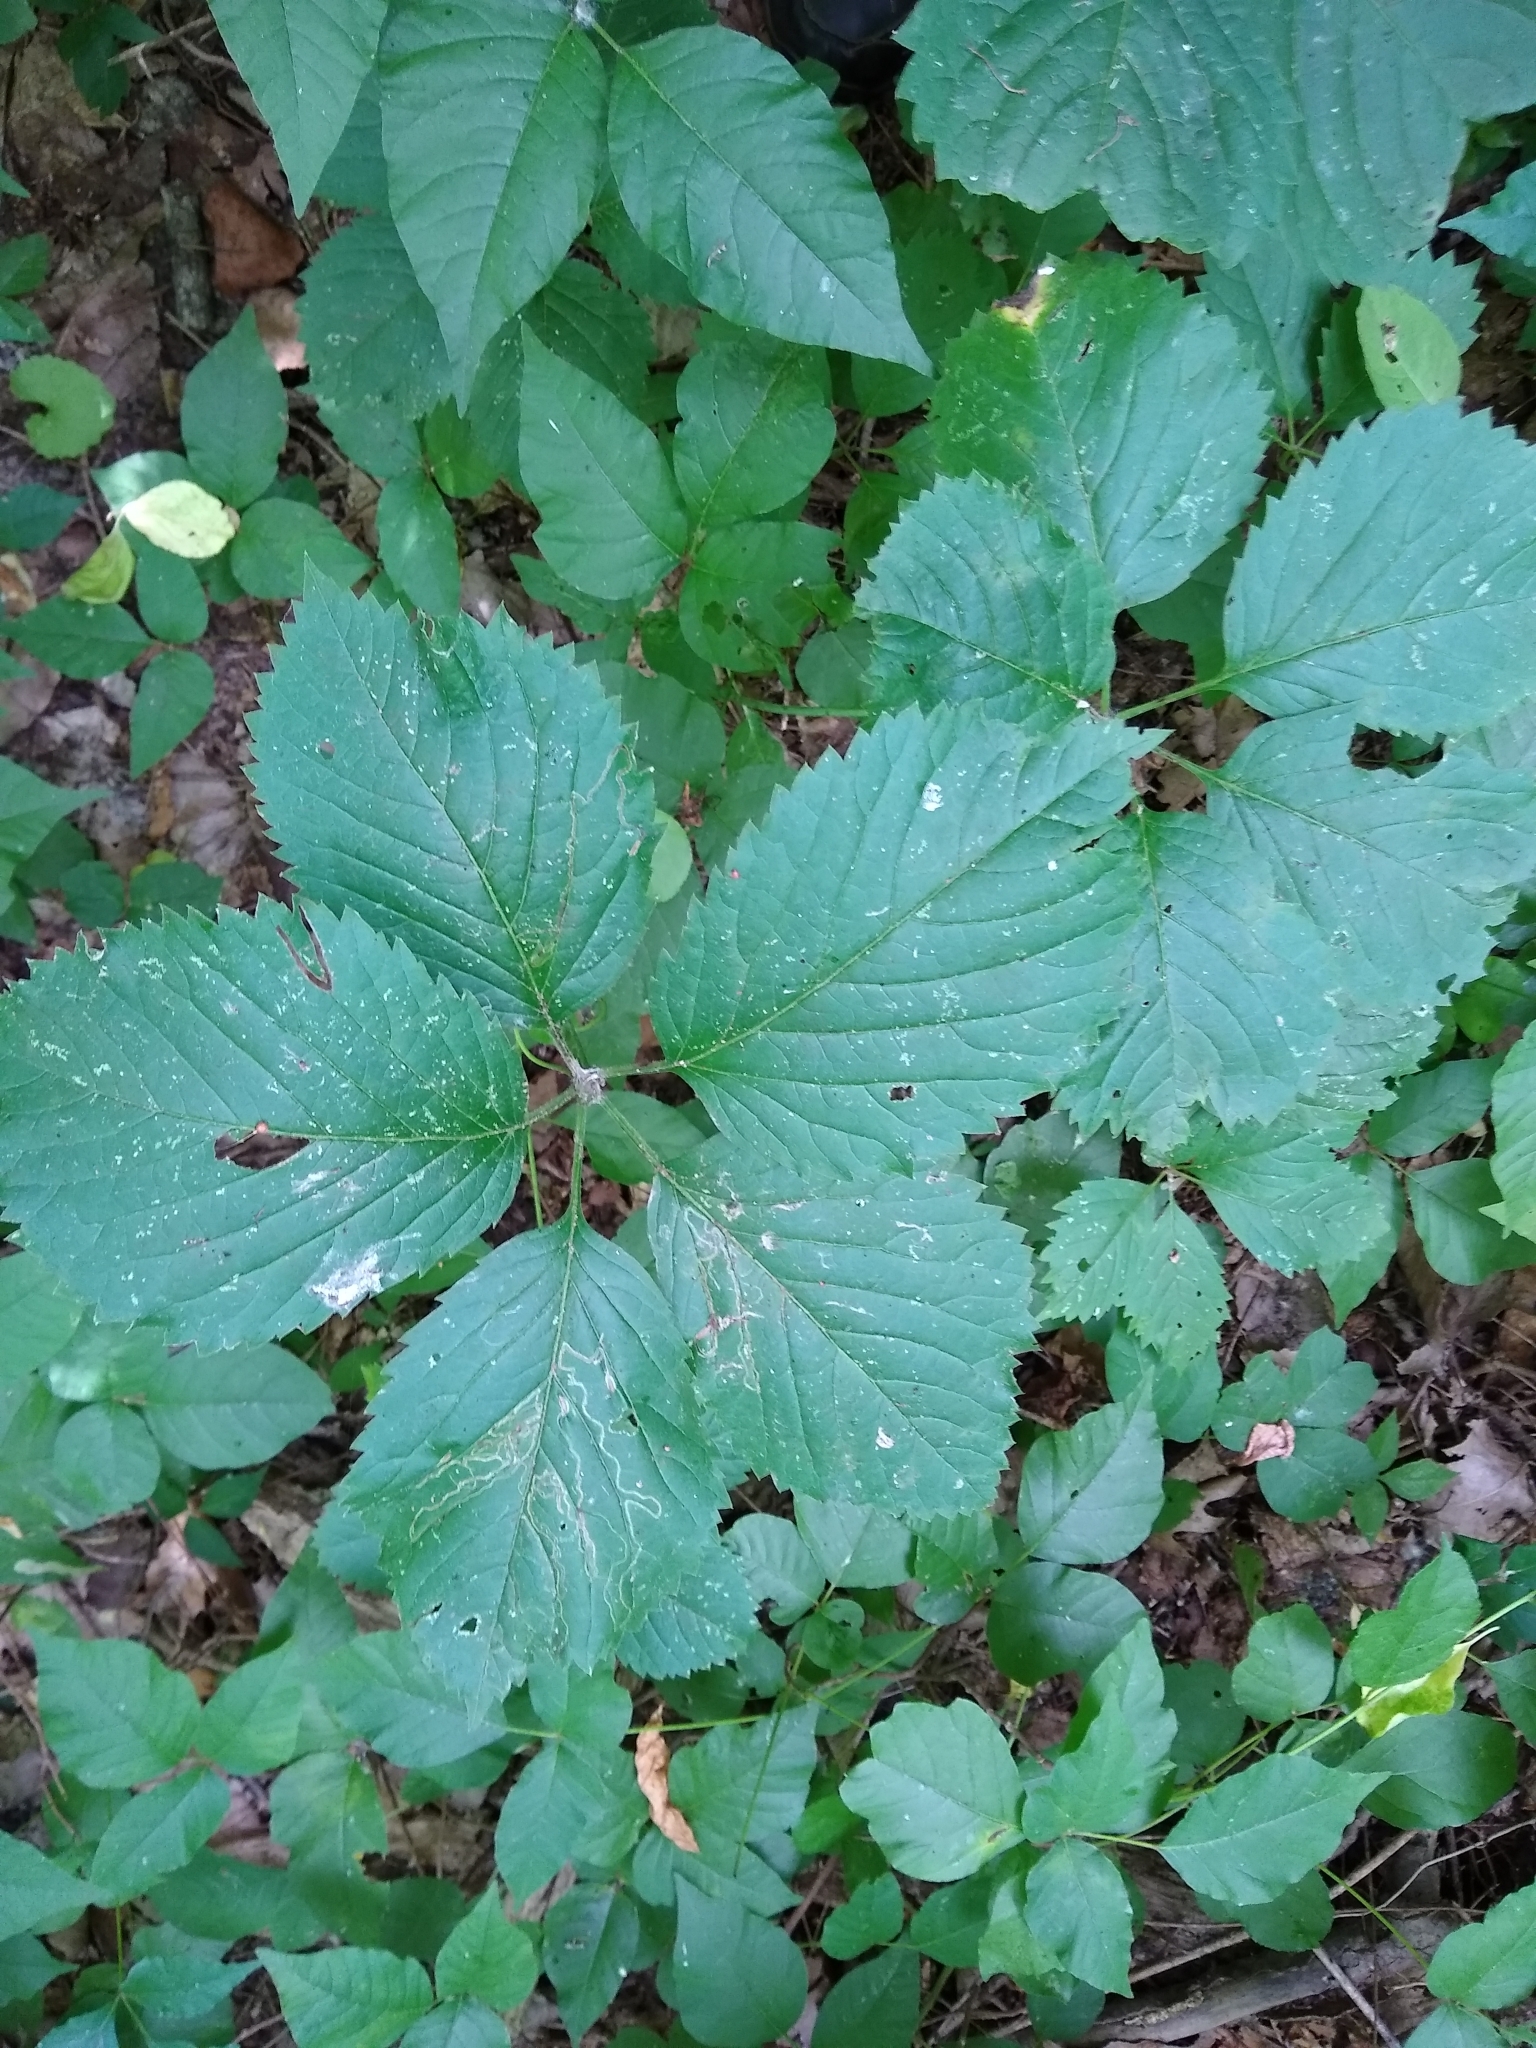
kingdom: Plantae
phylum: Tracheophyta
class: Magnoliopsida
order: Vitales
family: Vitaceae
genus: Parthenocissus
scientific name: Parthenocissus inserta
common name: False virginia-creeper
